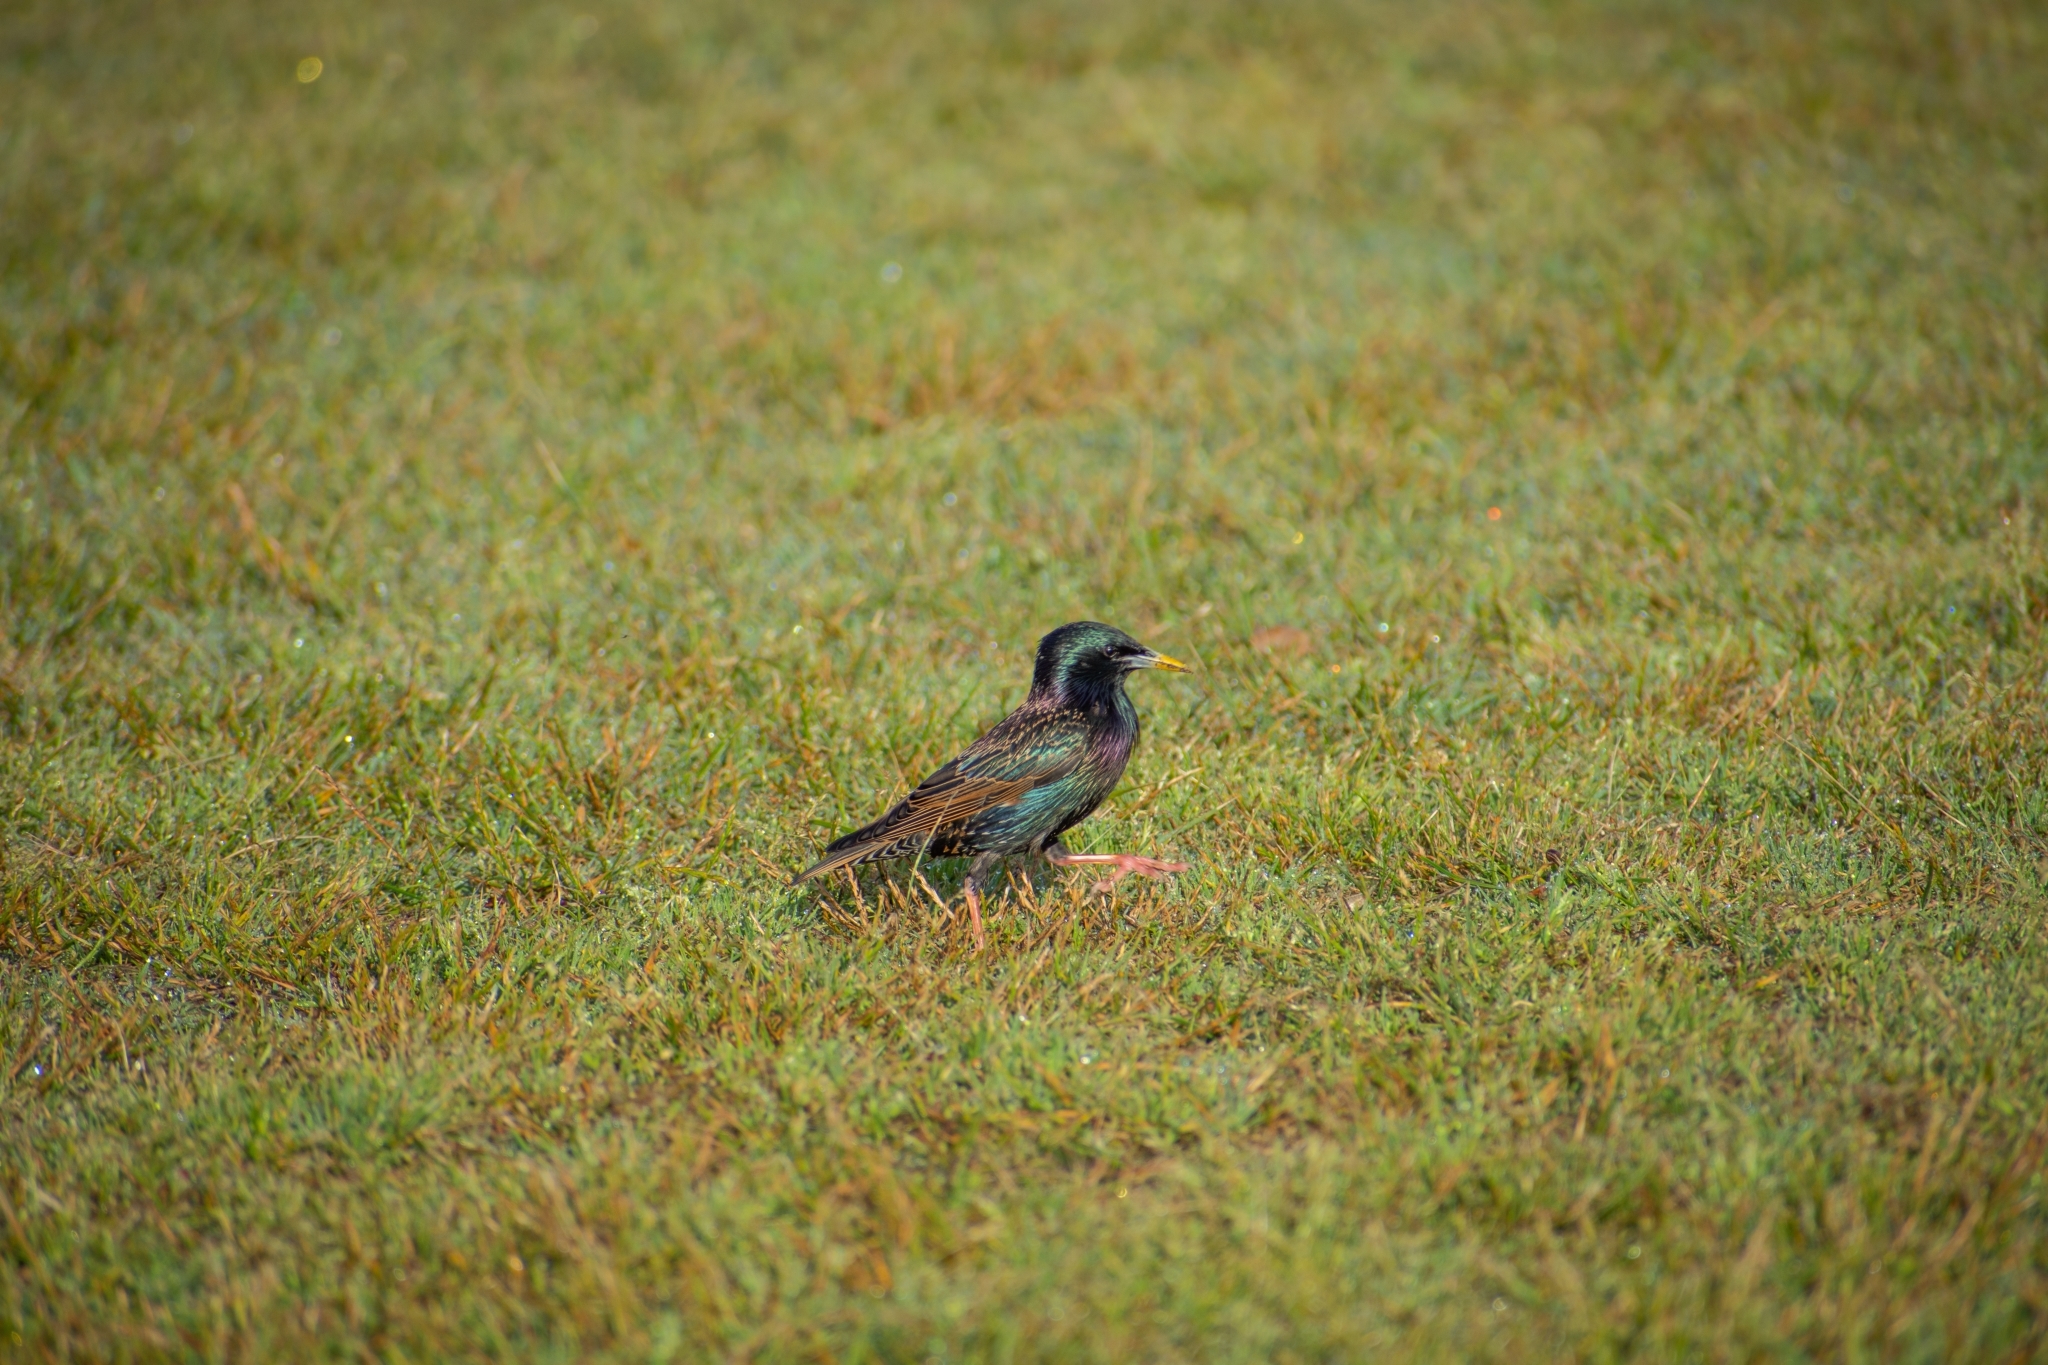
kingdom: Animalia
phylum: Chordata
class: Aves
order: Passeriformes
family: Sturnidae
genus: Sturnus
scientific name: Sturnus vulgaris
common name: Common starling
